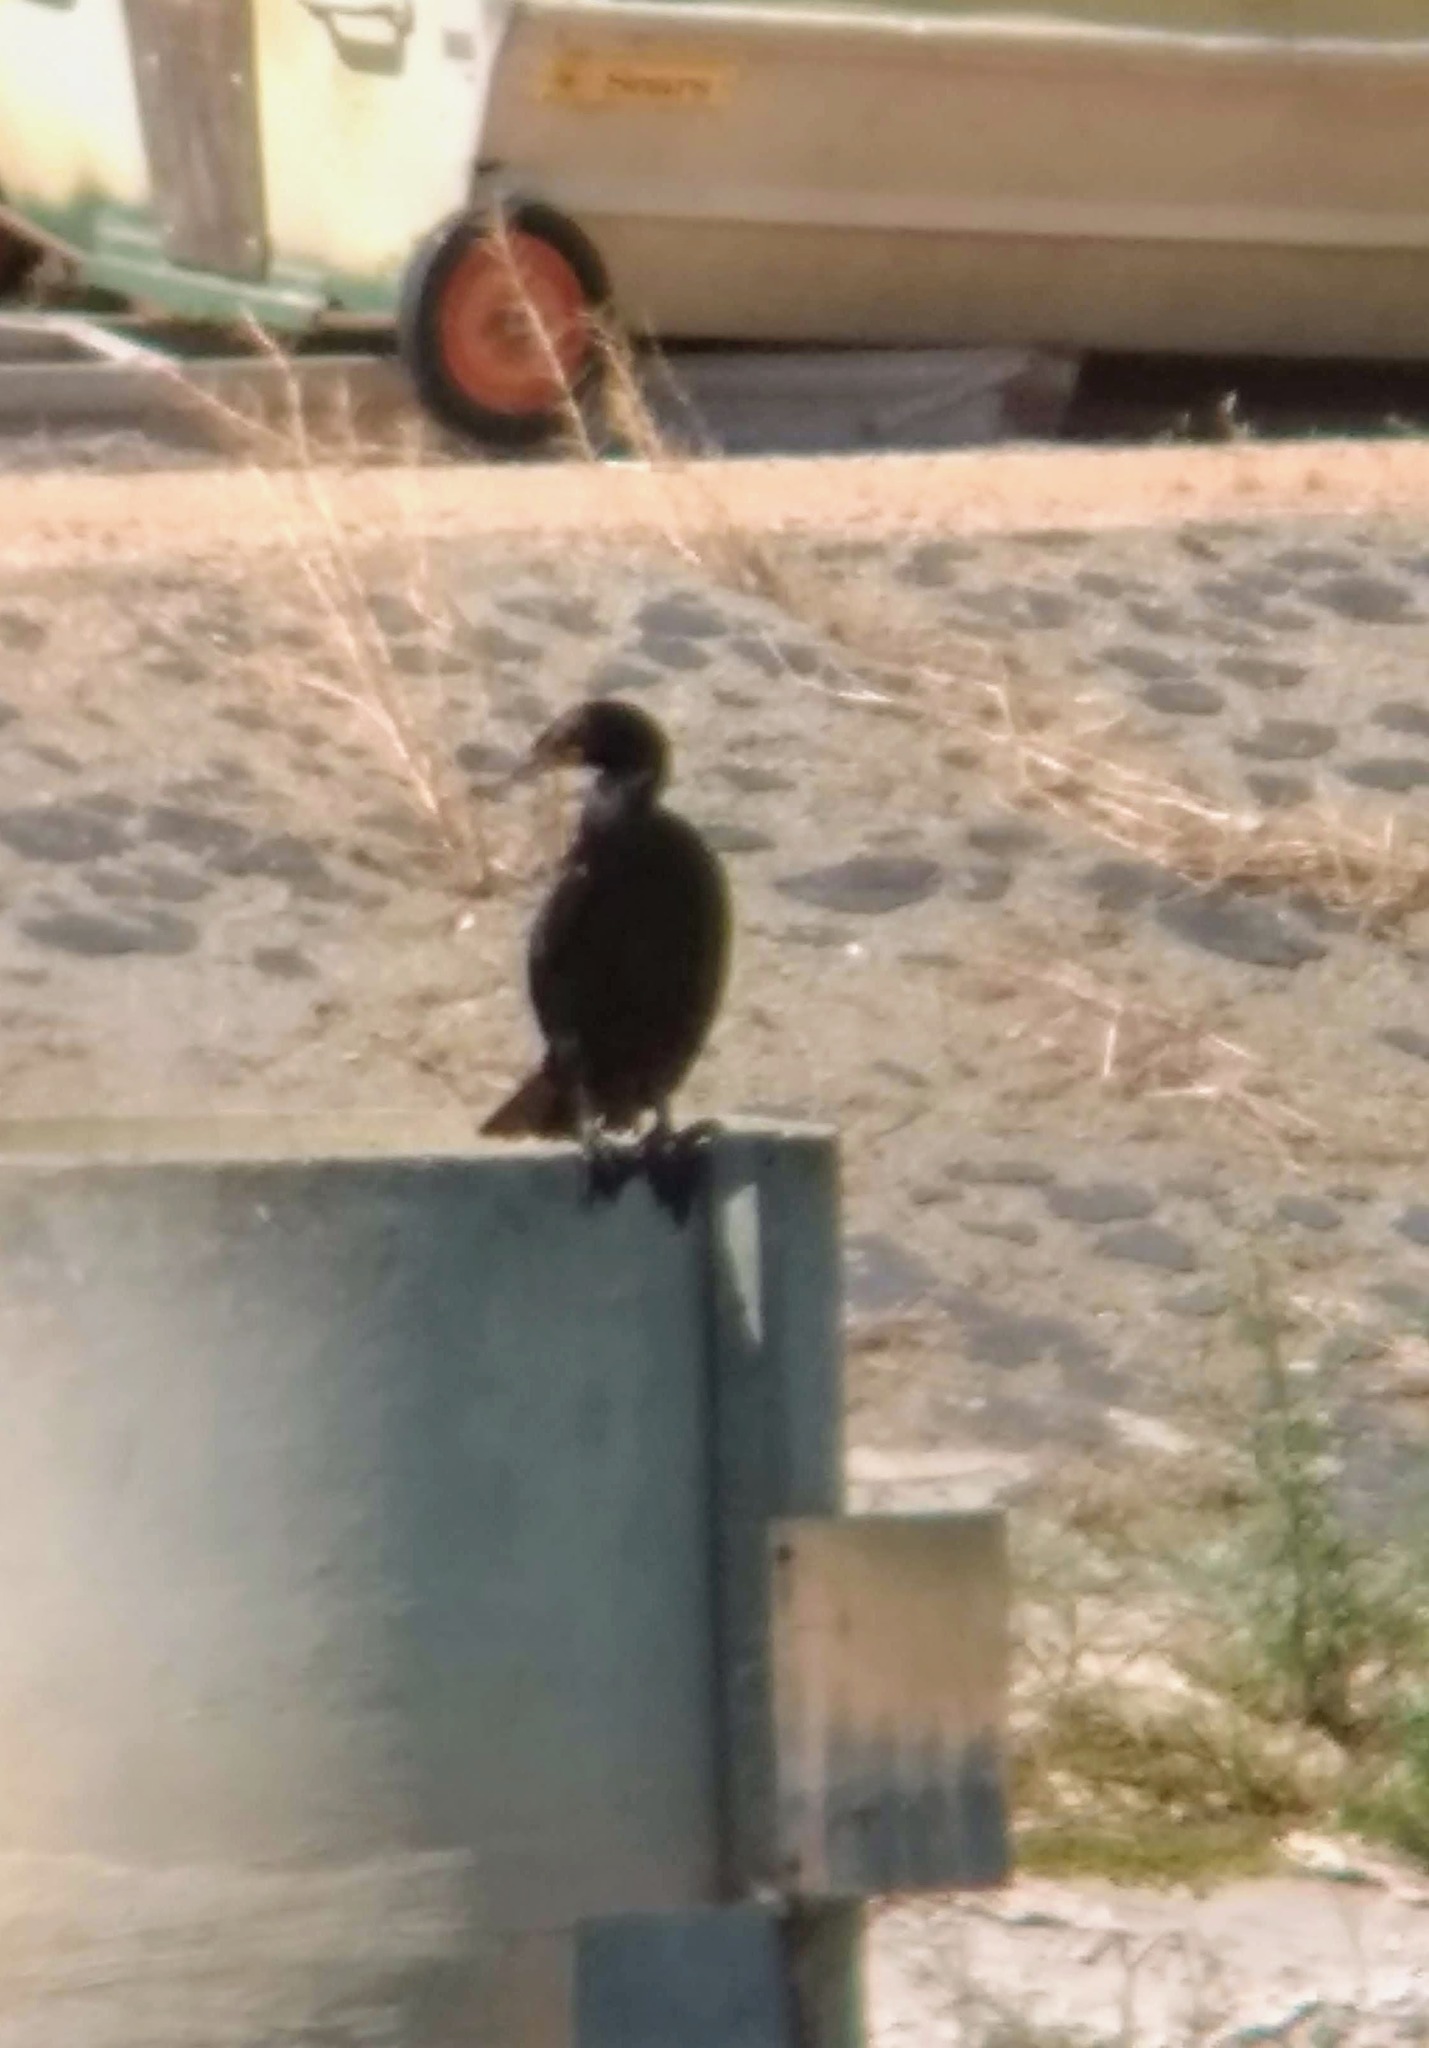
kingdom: Animalia
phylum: Chordata
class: Aves
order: Suliformes
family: Phalacrocoracidae
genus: Phalacrocorax
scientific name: Phalacrocorax auritus
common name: Double-crested cormorant
